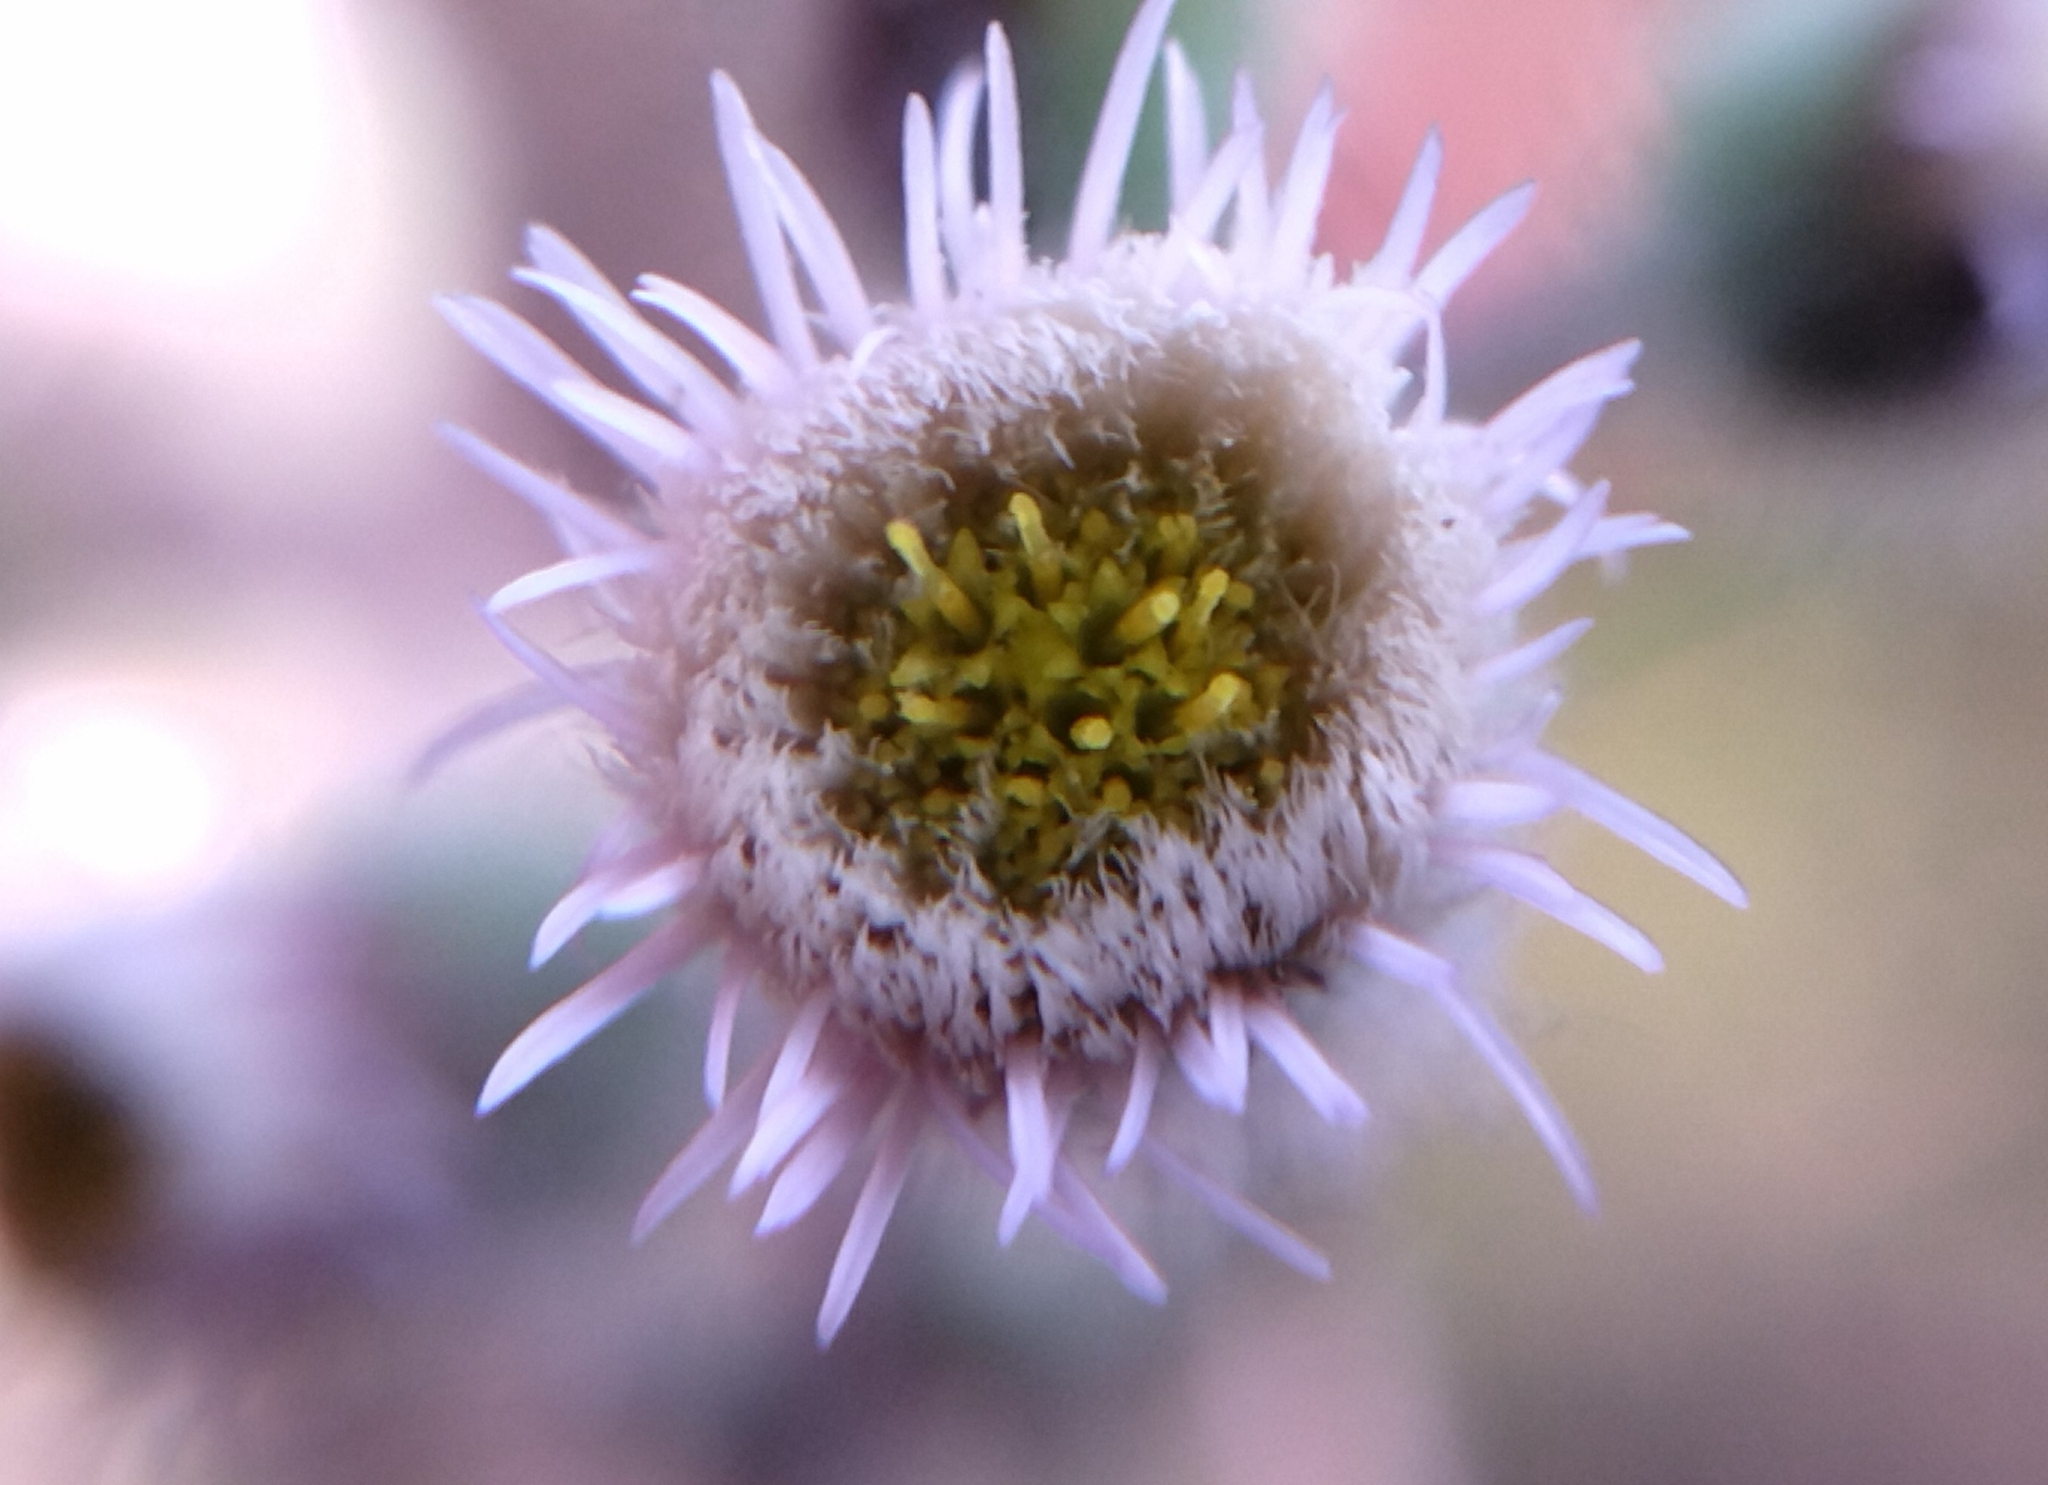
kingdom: Plantae
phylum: Tracheophyta
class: Magnoliopsida
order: Asterales
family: Asteraceae
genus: Erigeron
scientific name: Erigeron acris
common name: Blue fleabane
